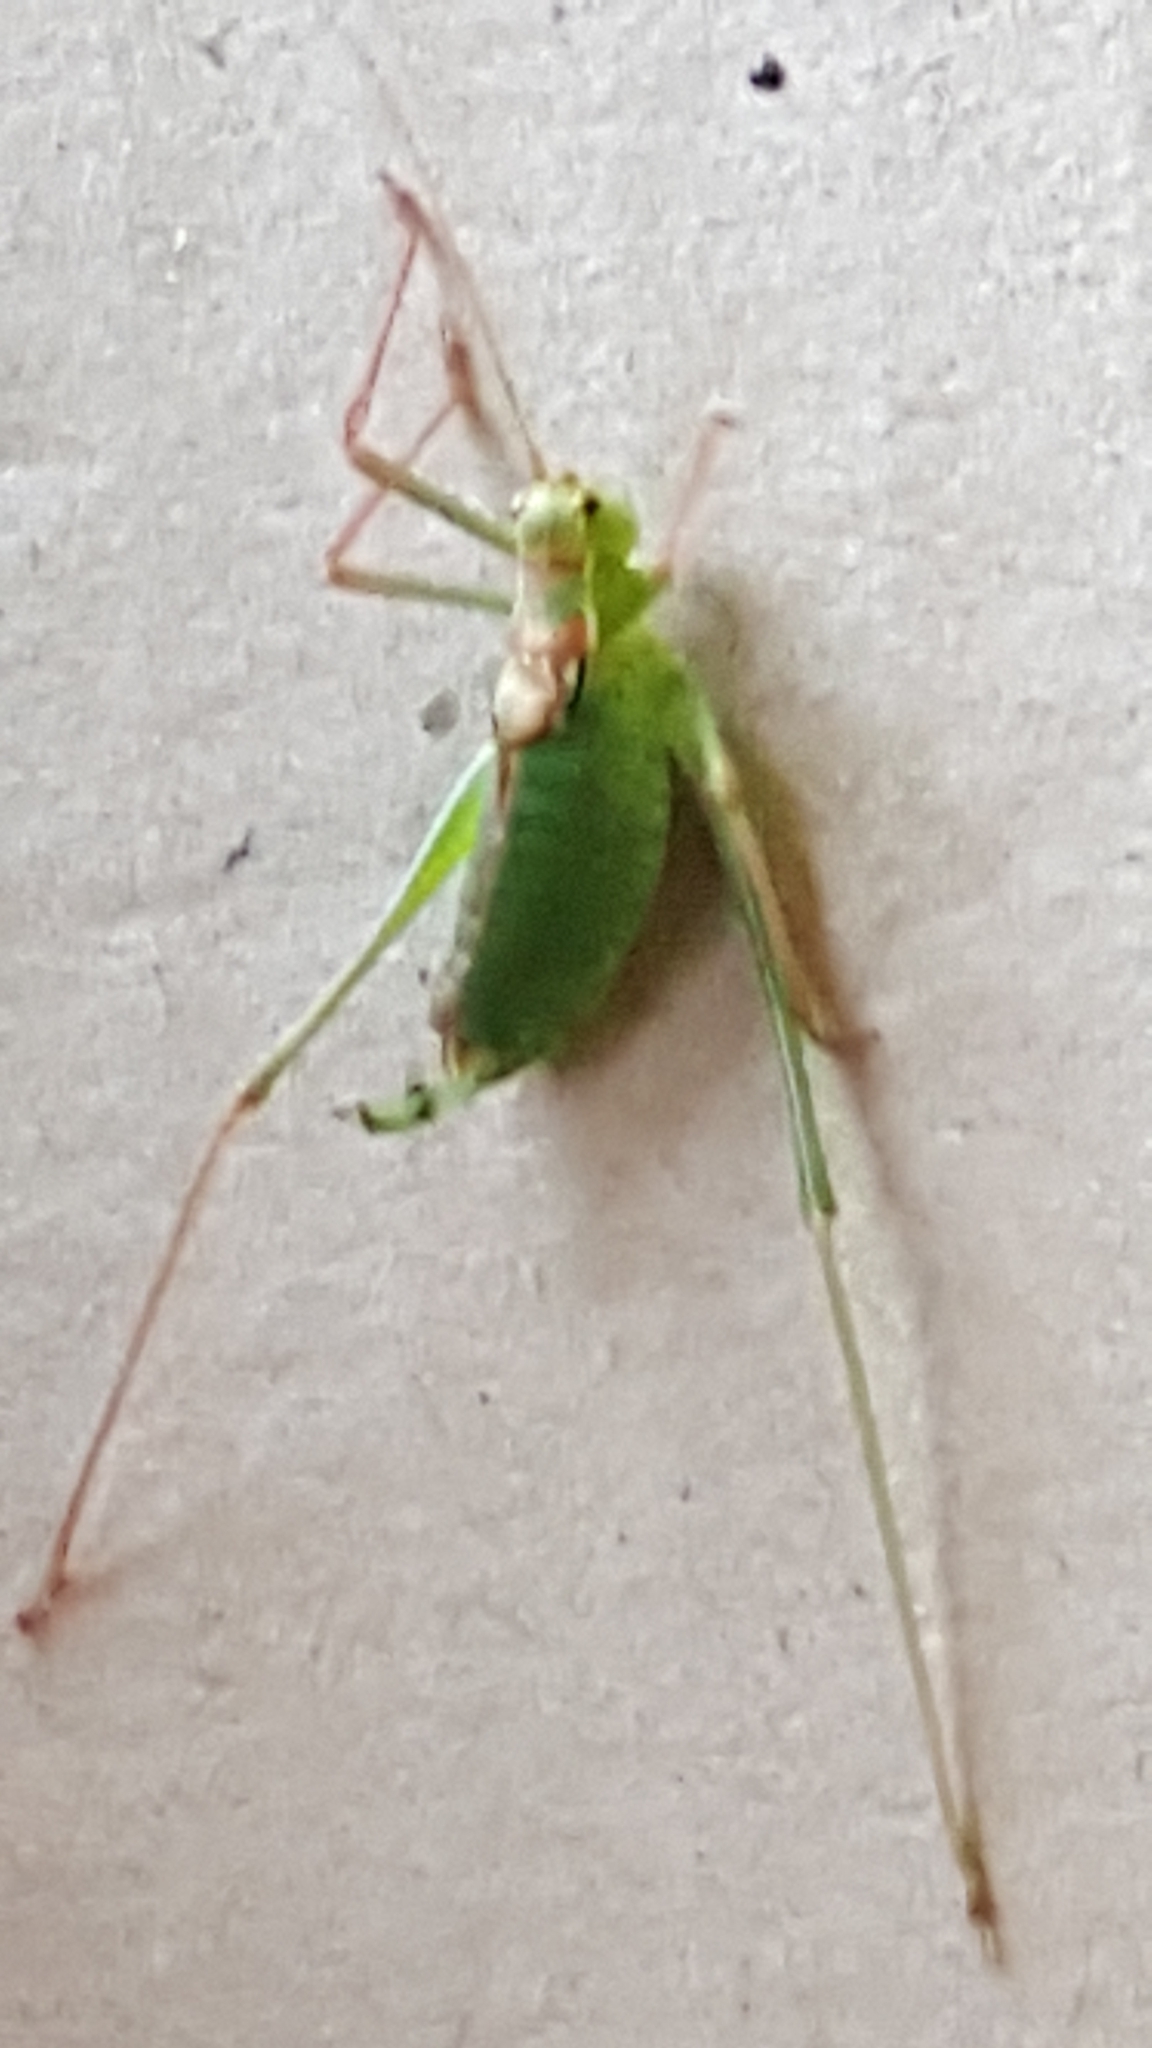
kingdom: Animalia
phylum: Arthropoda
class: Insecta
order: Orthoptera
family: Tettigoniidae
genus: Leptophyes
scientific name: Leptophyes punctatissima
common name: Speckled bush-cricket
